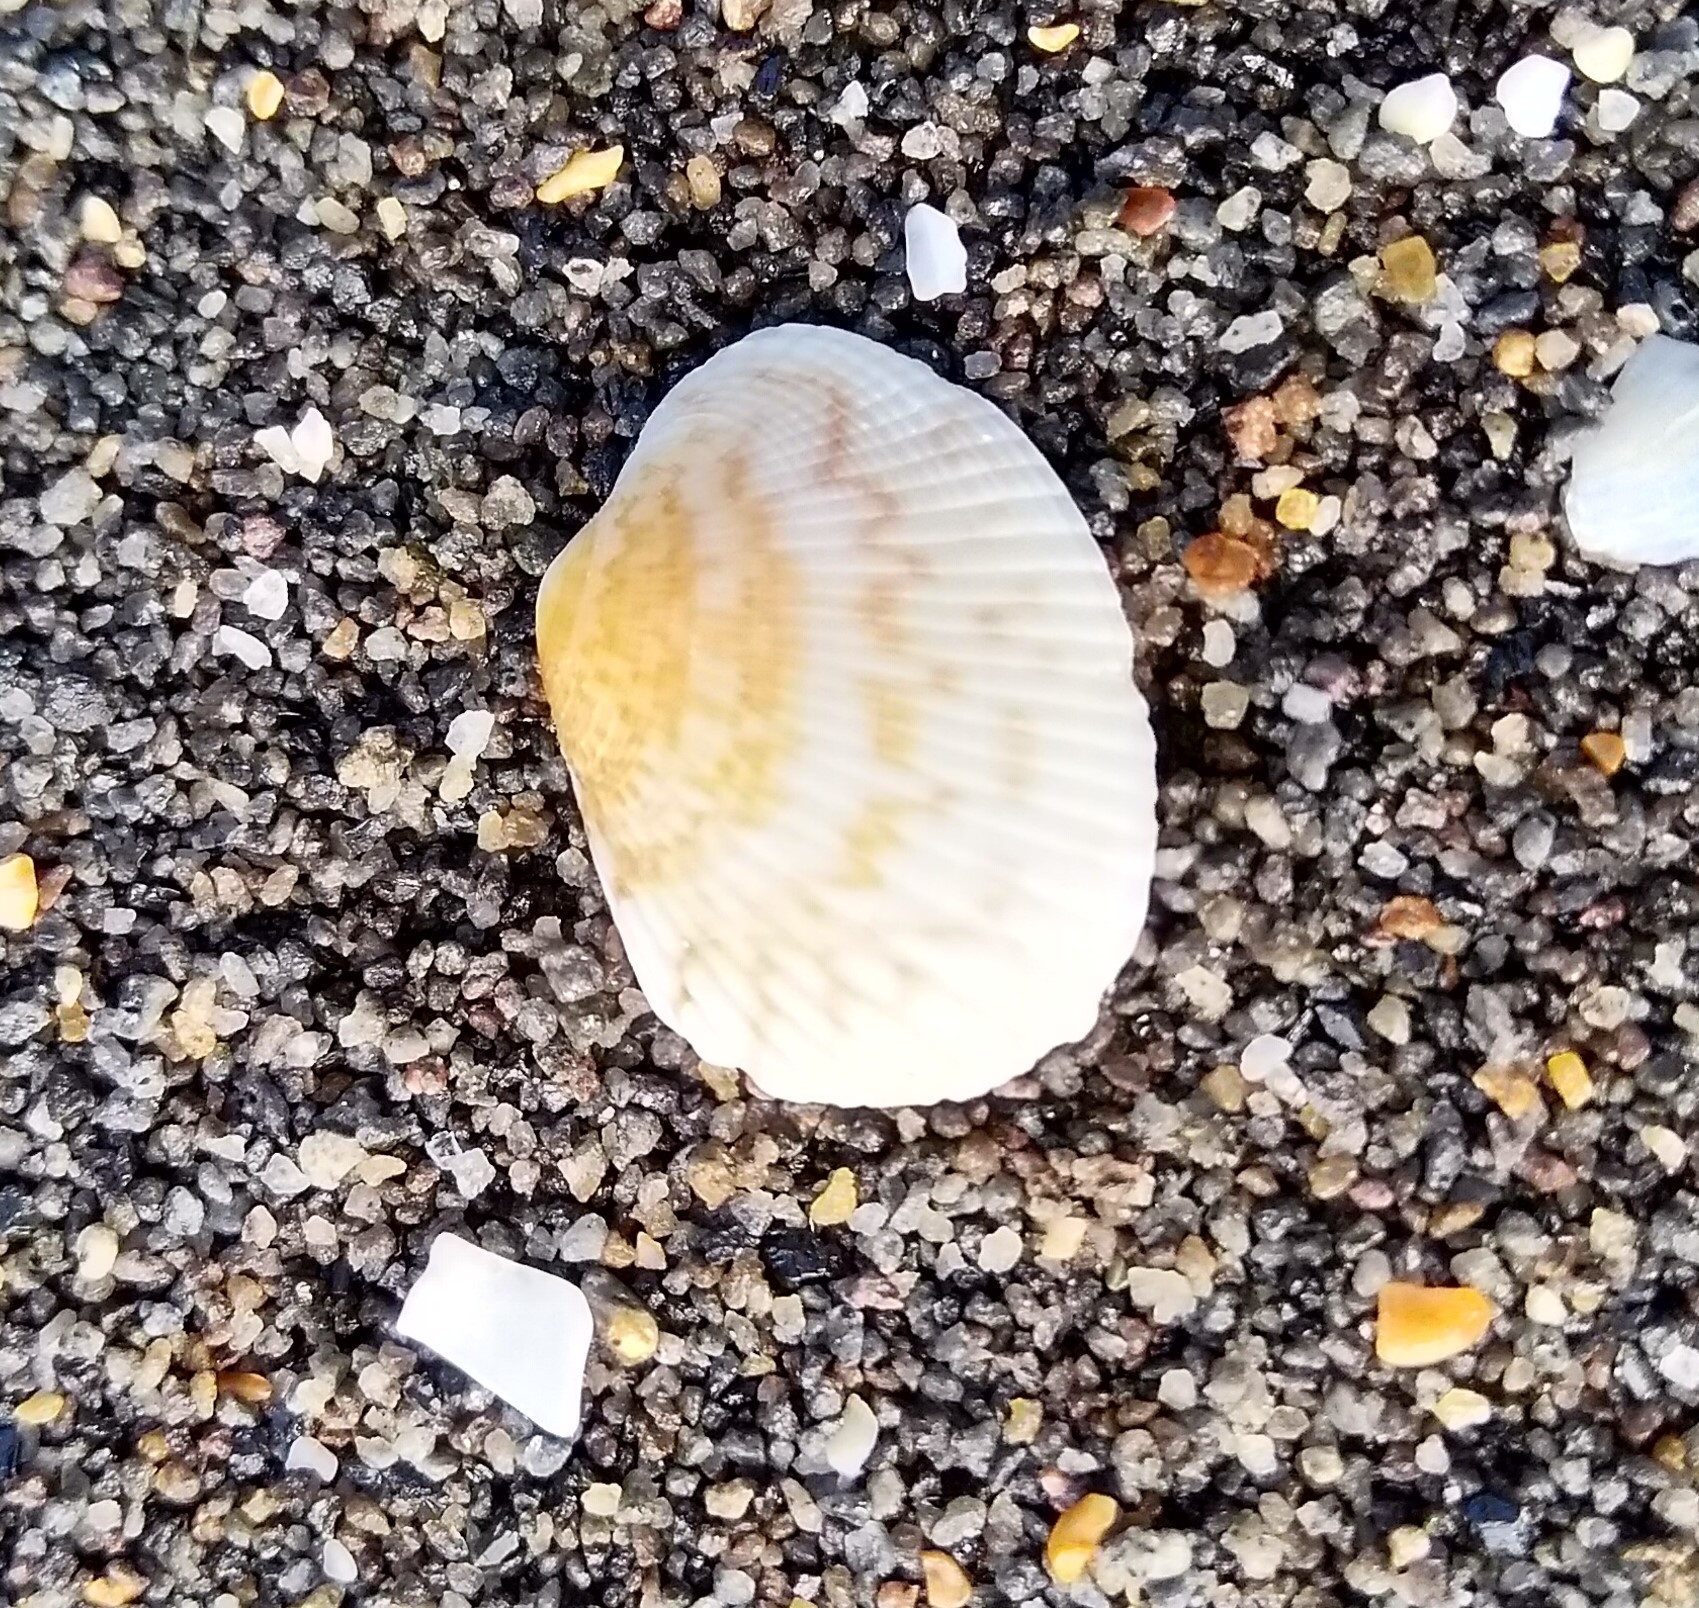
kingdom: Animalia
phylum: Mollusca
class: Bivalvia
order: Venerida
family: Veneridae
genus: Leukoma
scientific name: Leukoma crassicosta
